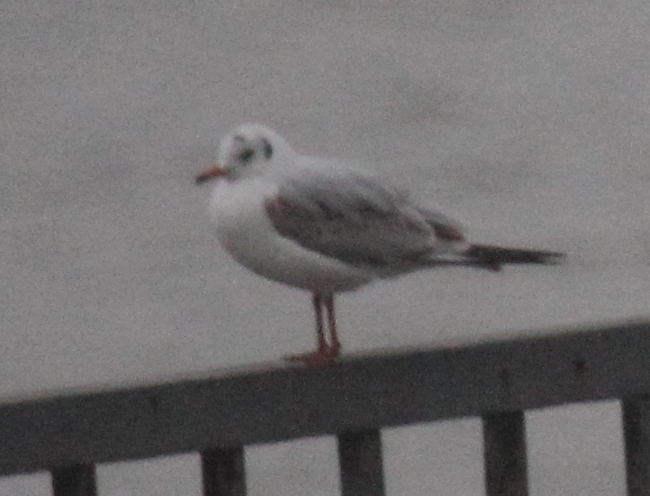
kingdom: Animalia
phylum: Chordata
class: Aves
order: Charadriiformes
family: Laridae
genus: Chroicocephalus
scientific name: Chroicocephalus ridibundus
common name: Black-headed gull
